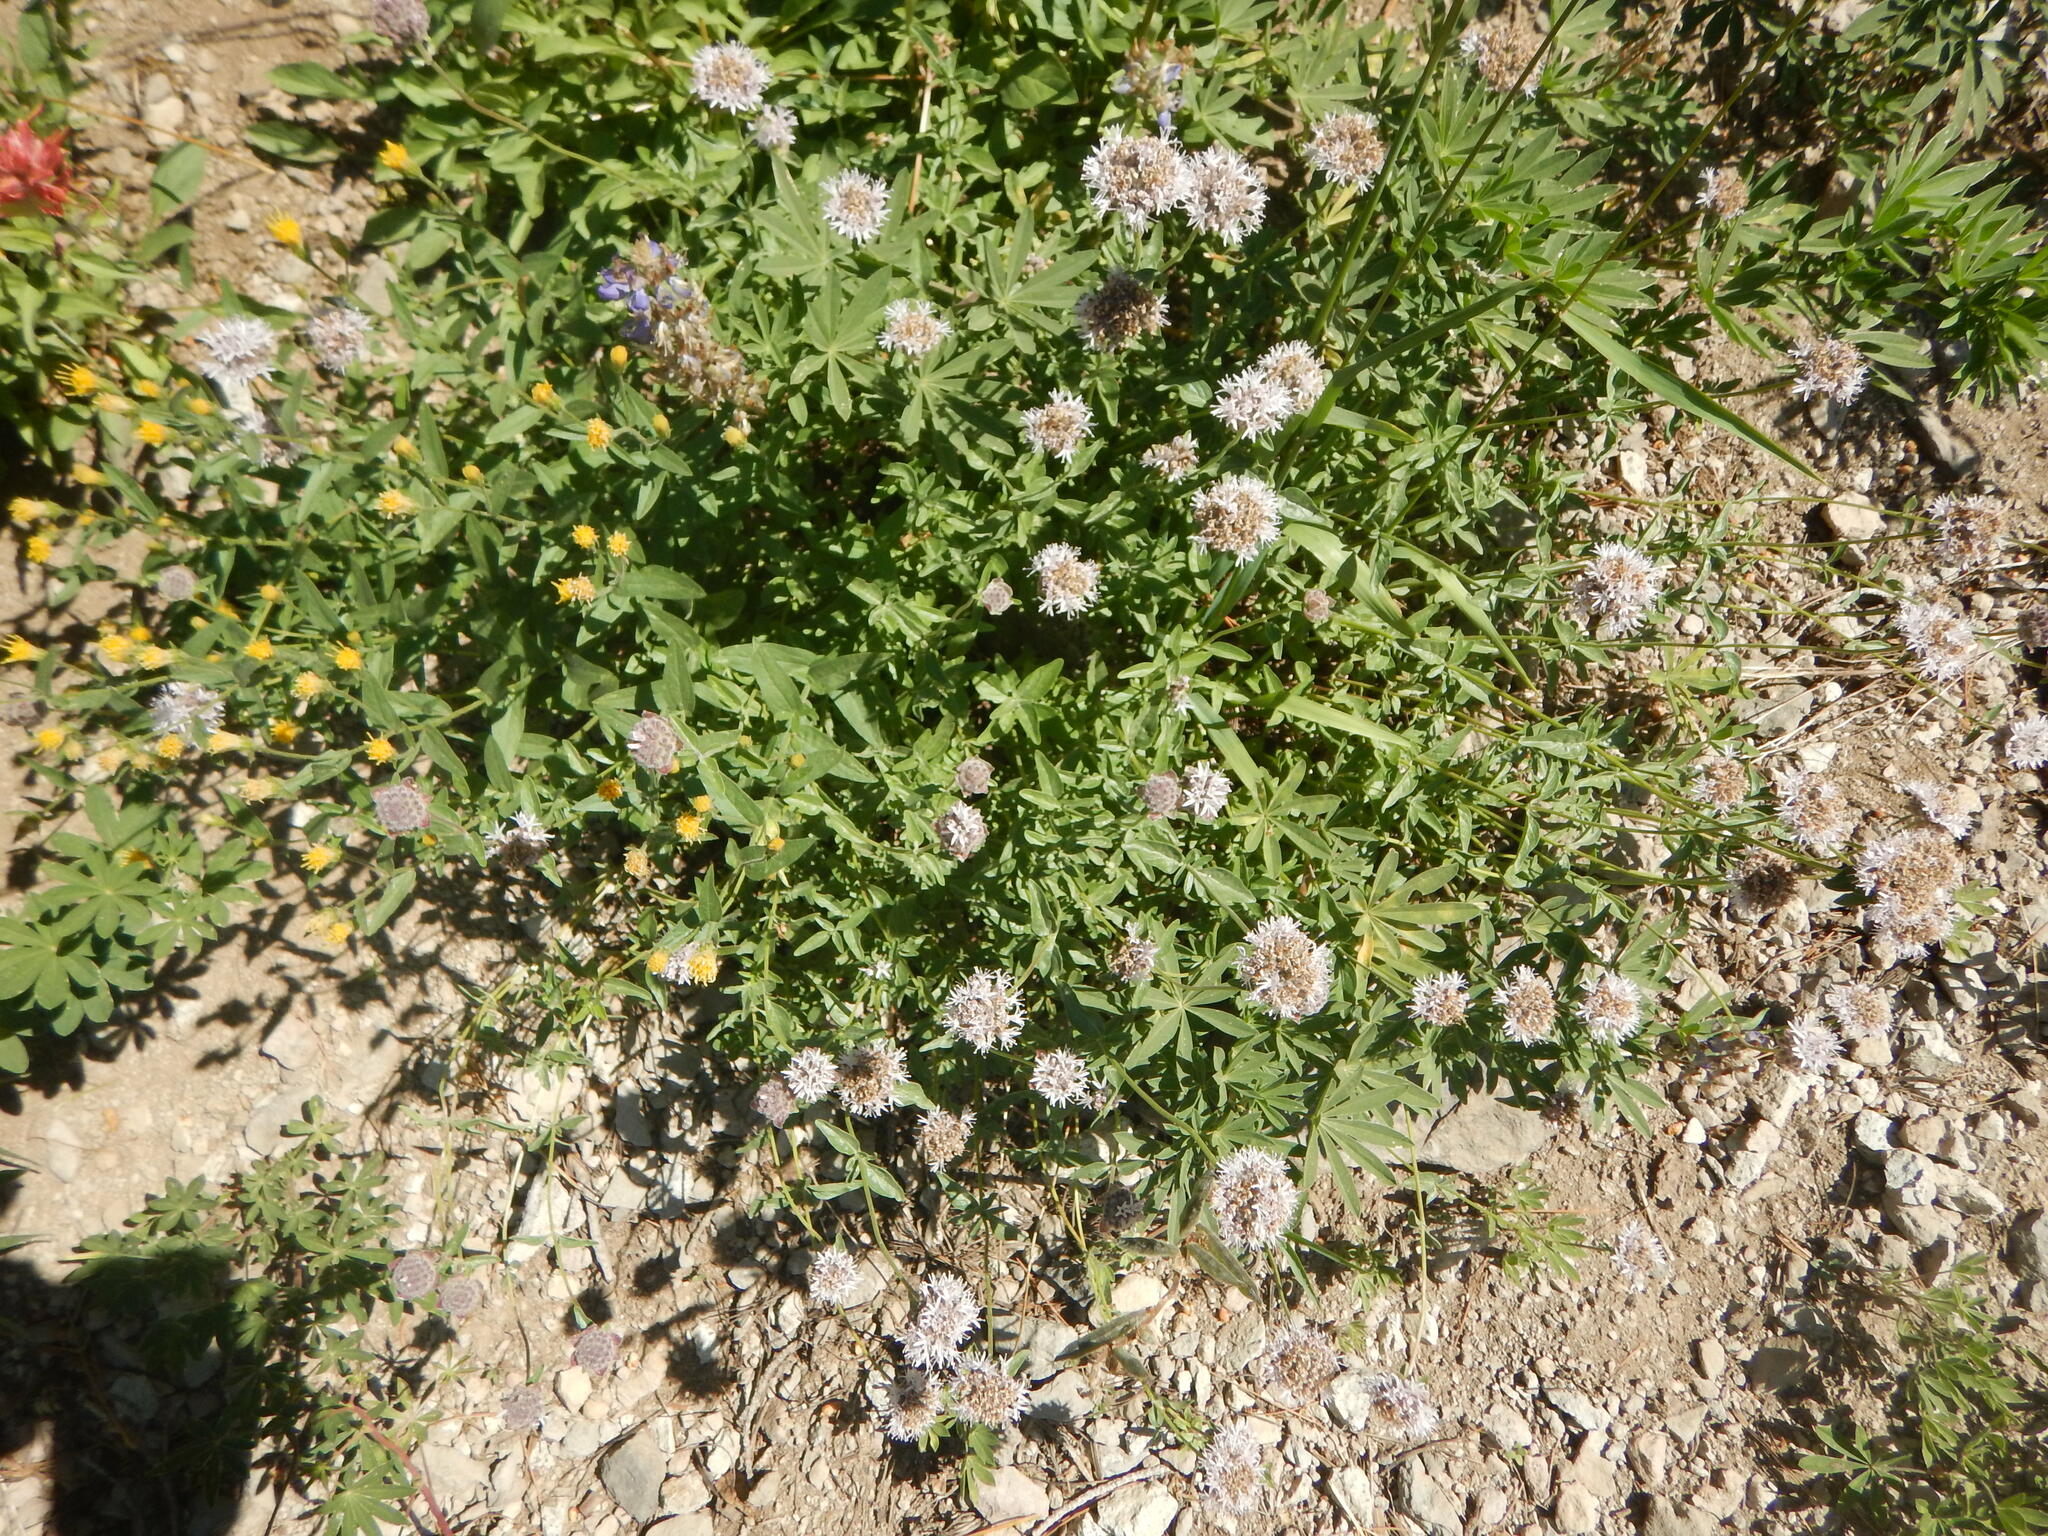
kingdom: Plantae
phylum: Tracheophyta
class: Magnoliopsida
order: Lamiales
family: Lamiaceae
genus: Monardella
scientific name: Monardella odoratissima
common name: Pacific monardella
